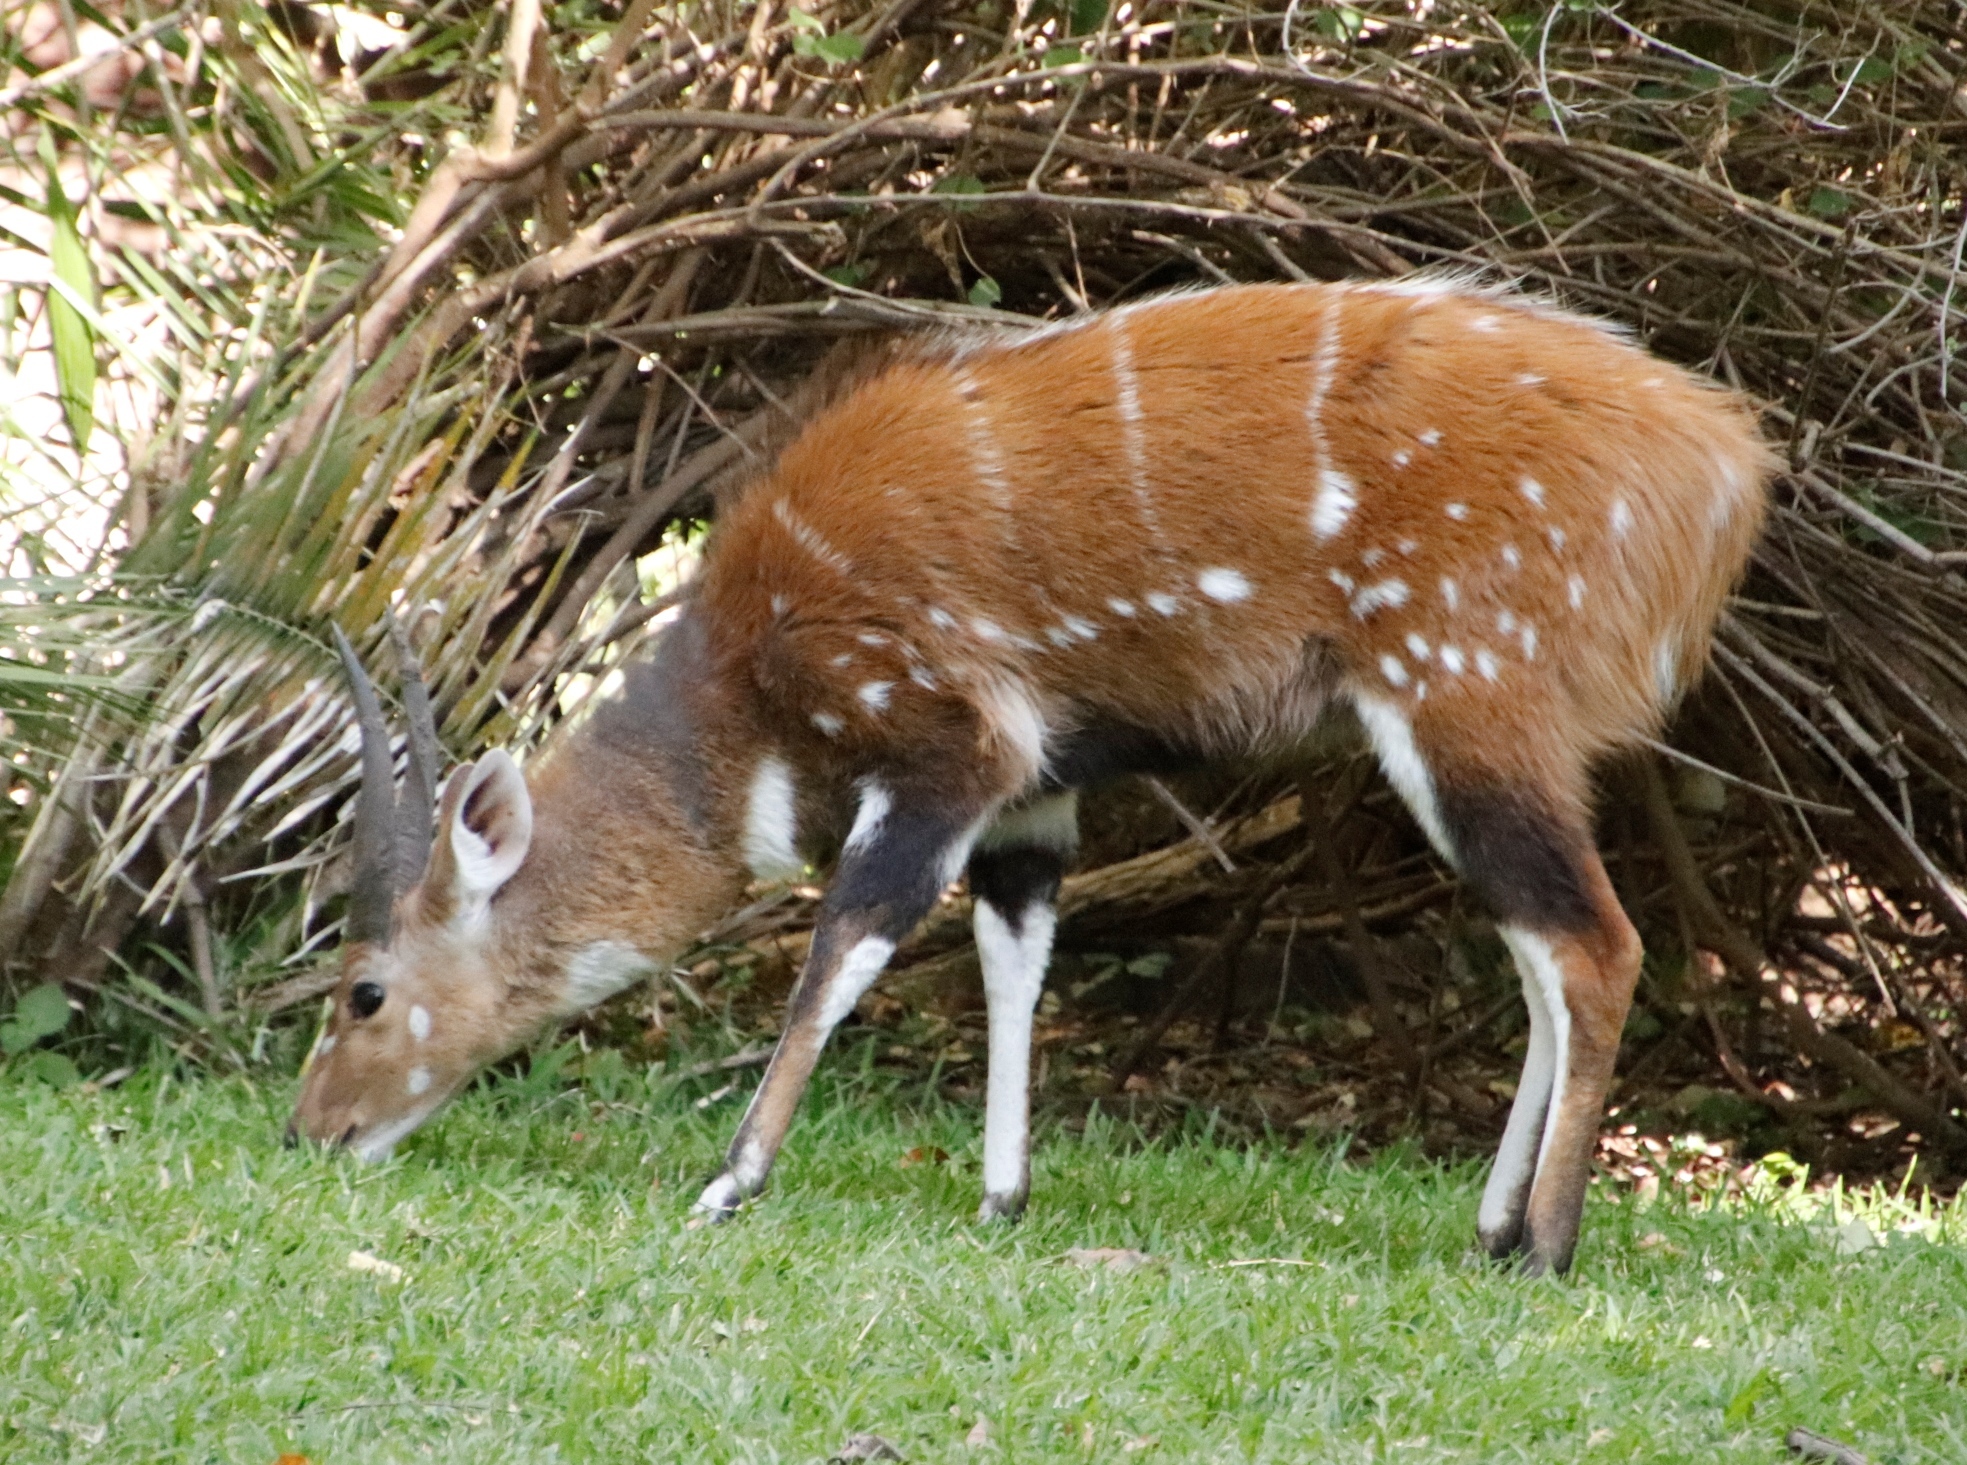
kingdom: Animalia
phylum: Chordata
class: Mammalia
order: Artiodactyla
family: Bovidae
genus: Tragelaphus
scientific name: Tragelaphus scriptus
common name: Bushbuck
